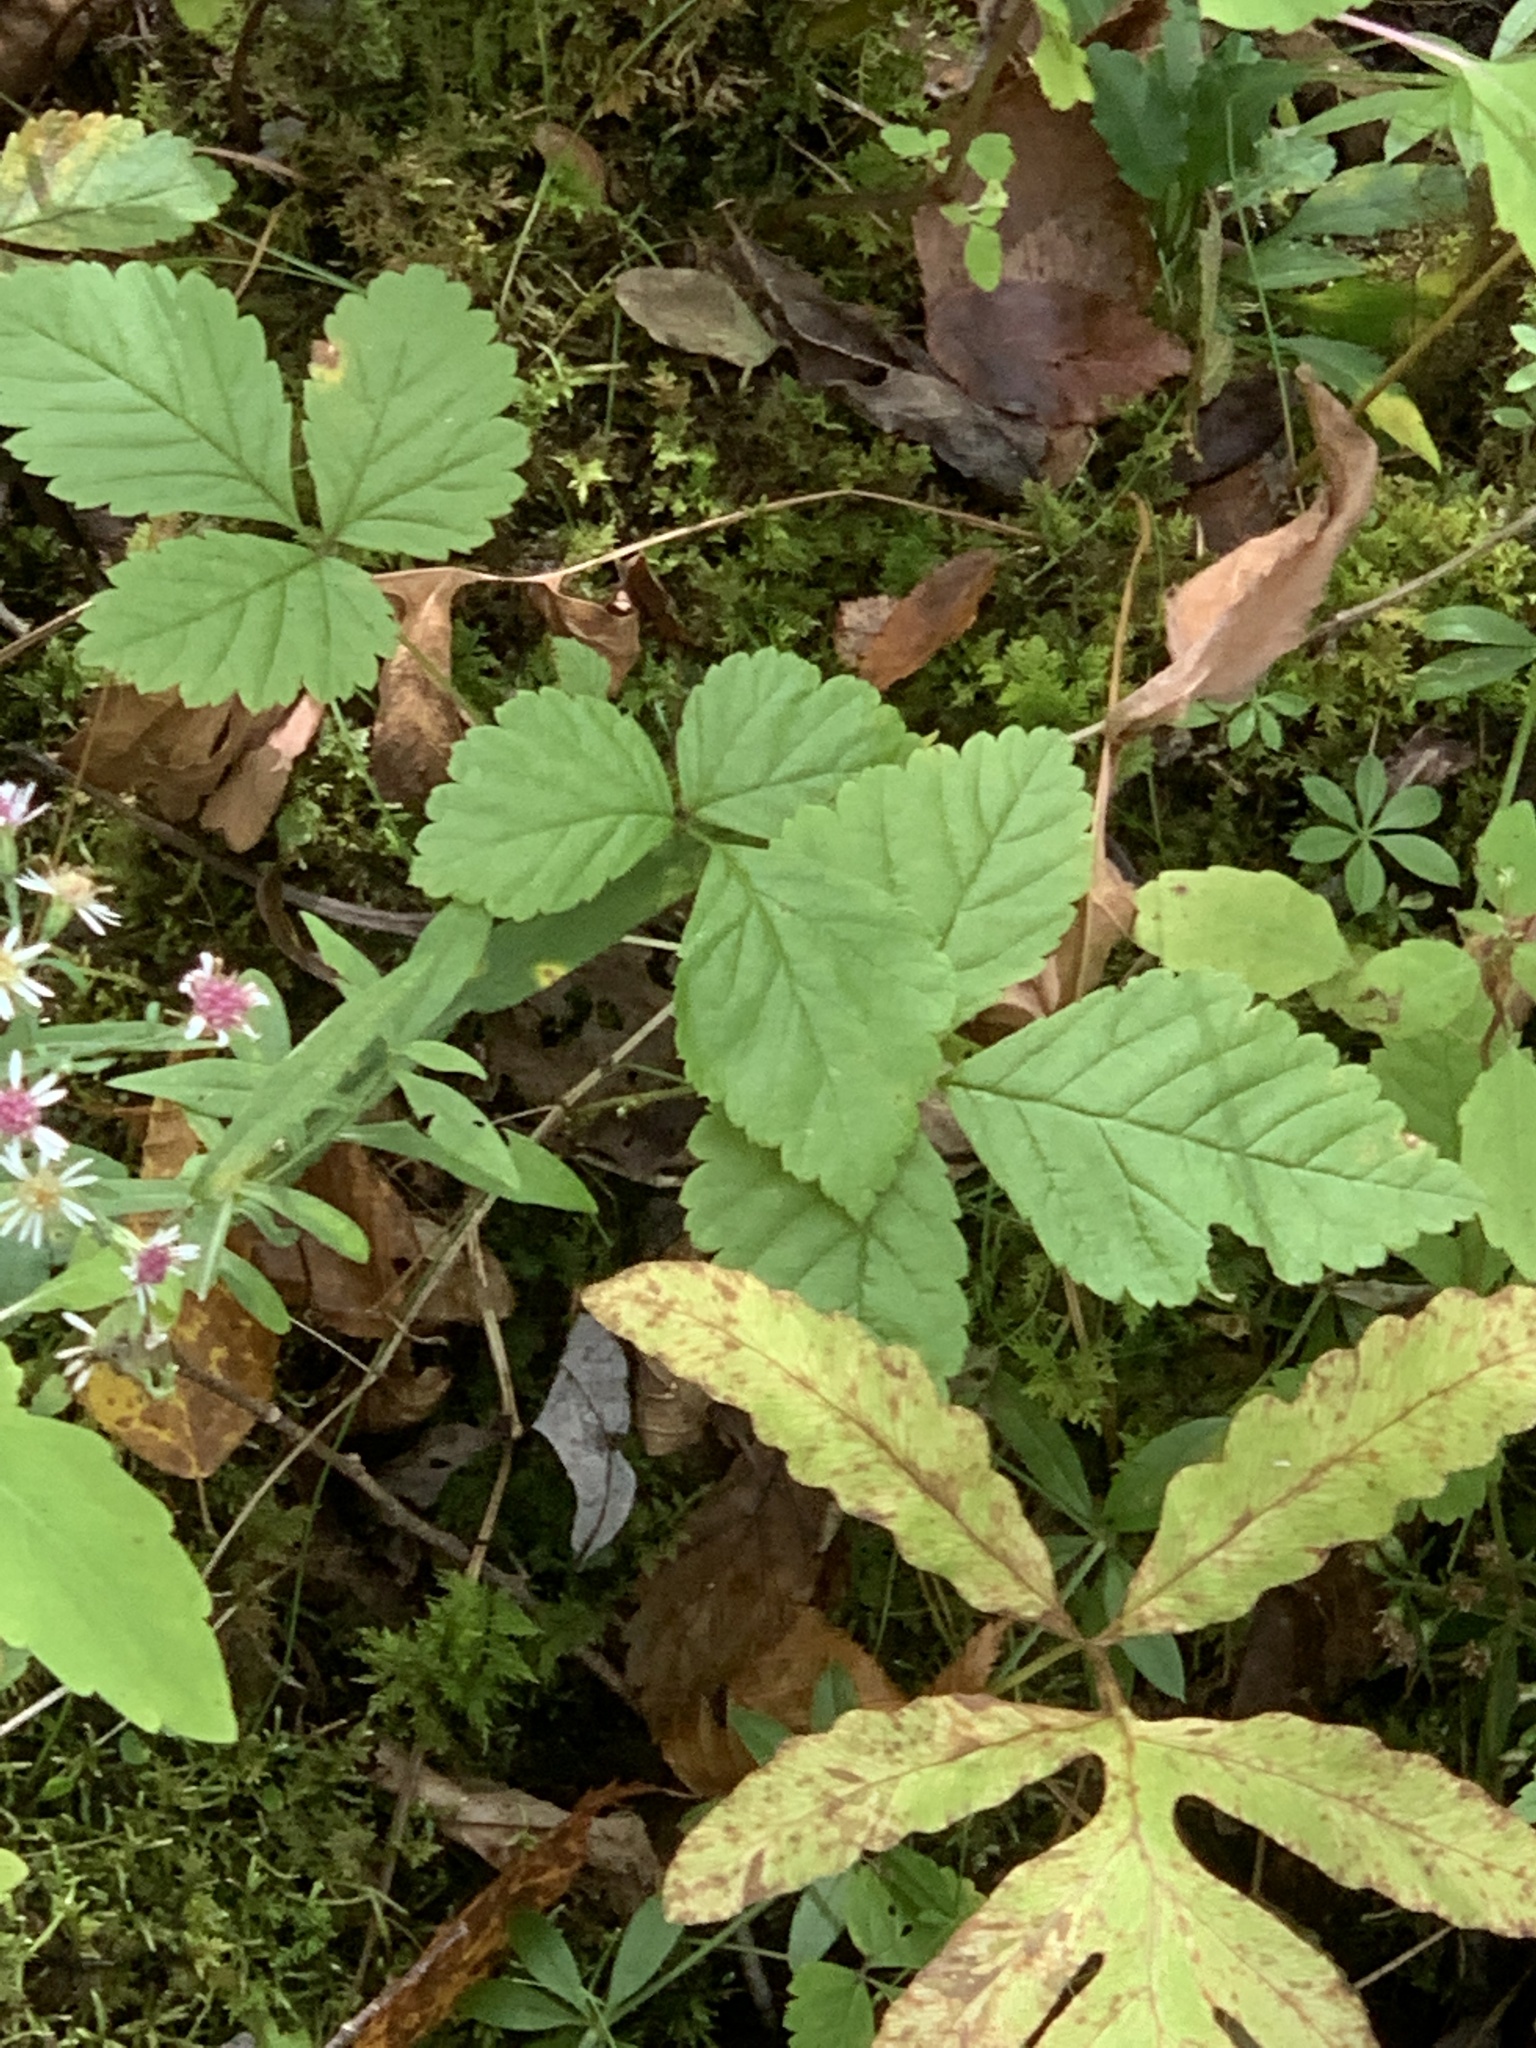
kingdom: Plantae
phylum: Tracheophyta
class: Magnoliopsida
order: Rosales
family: Rosaceae
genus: Rubus
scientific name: Rubus pubescens
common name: Dwarf raspberry
